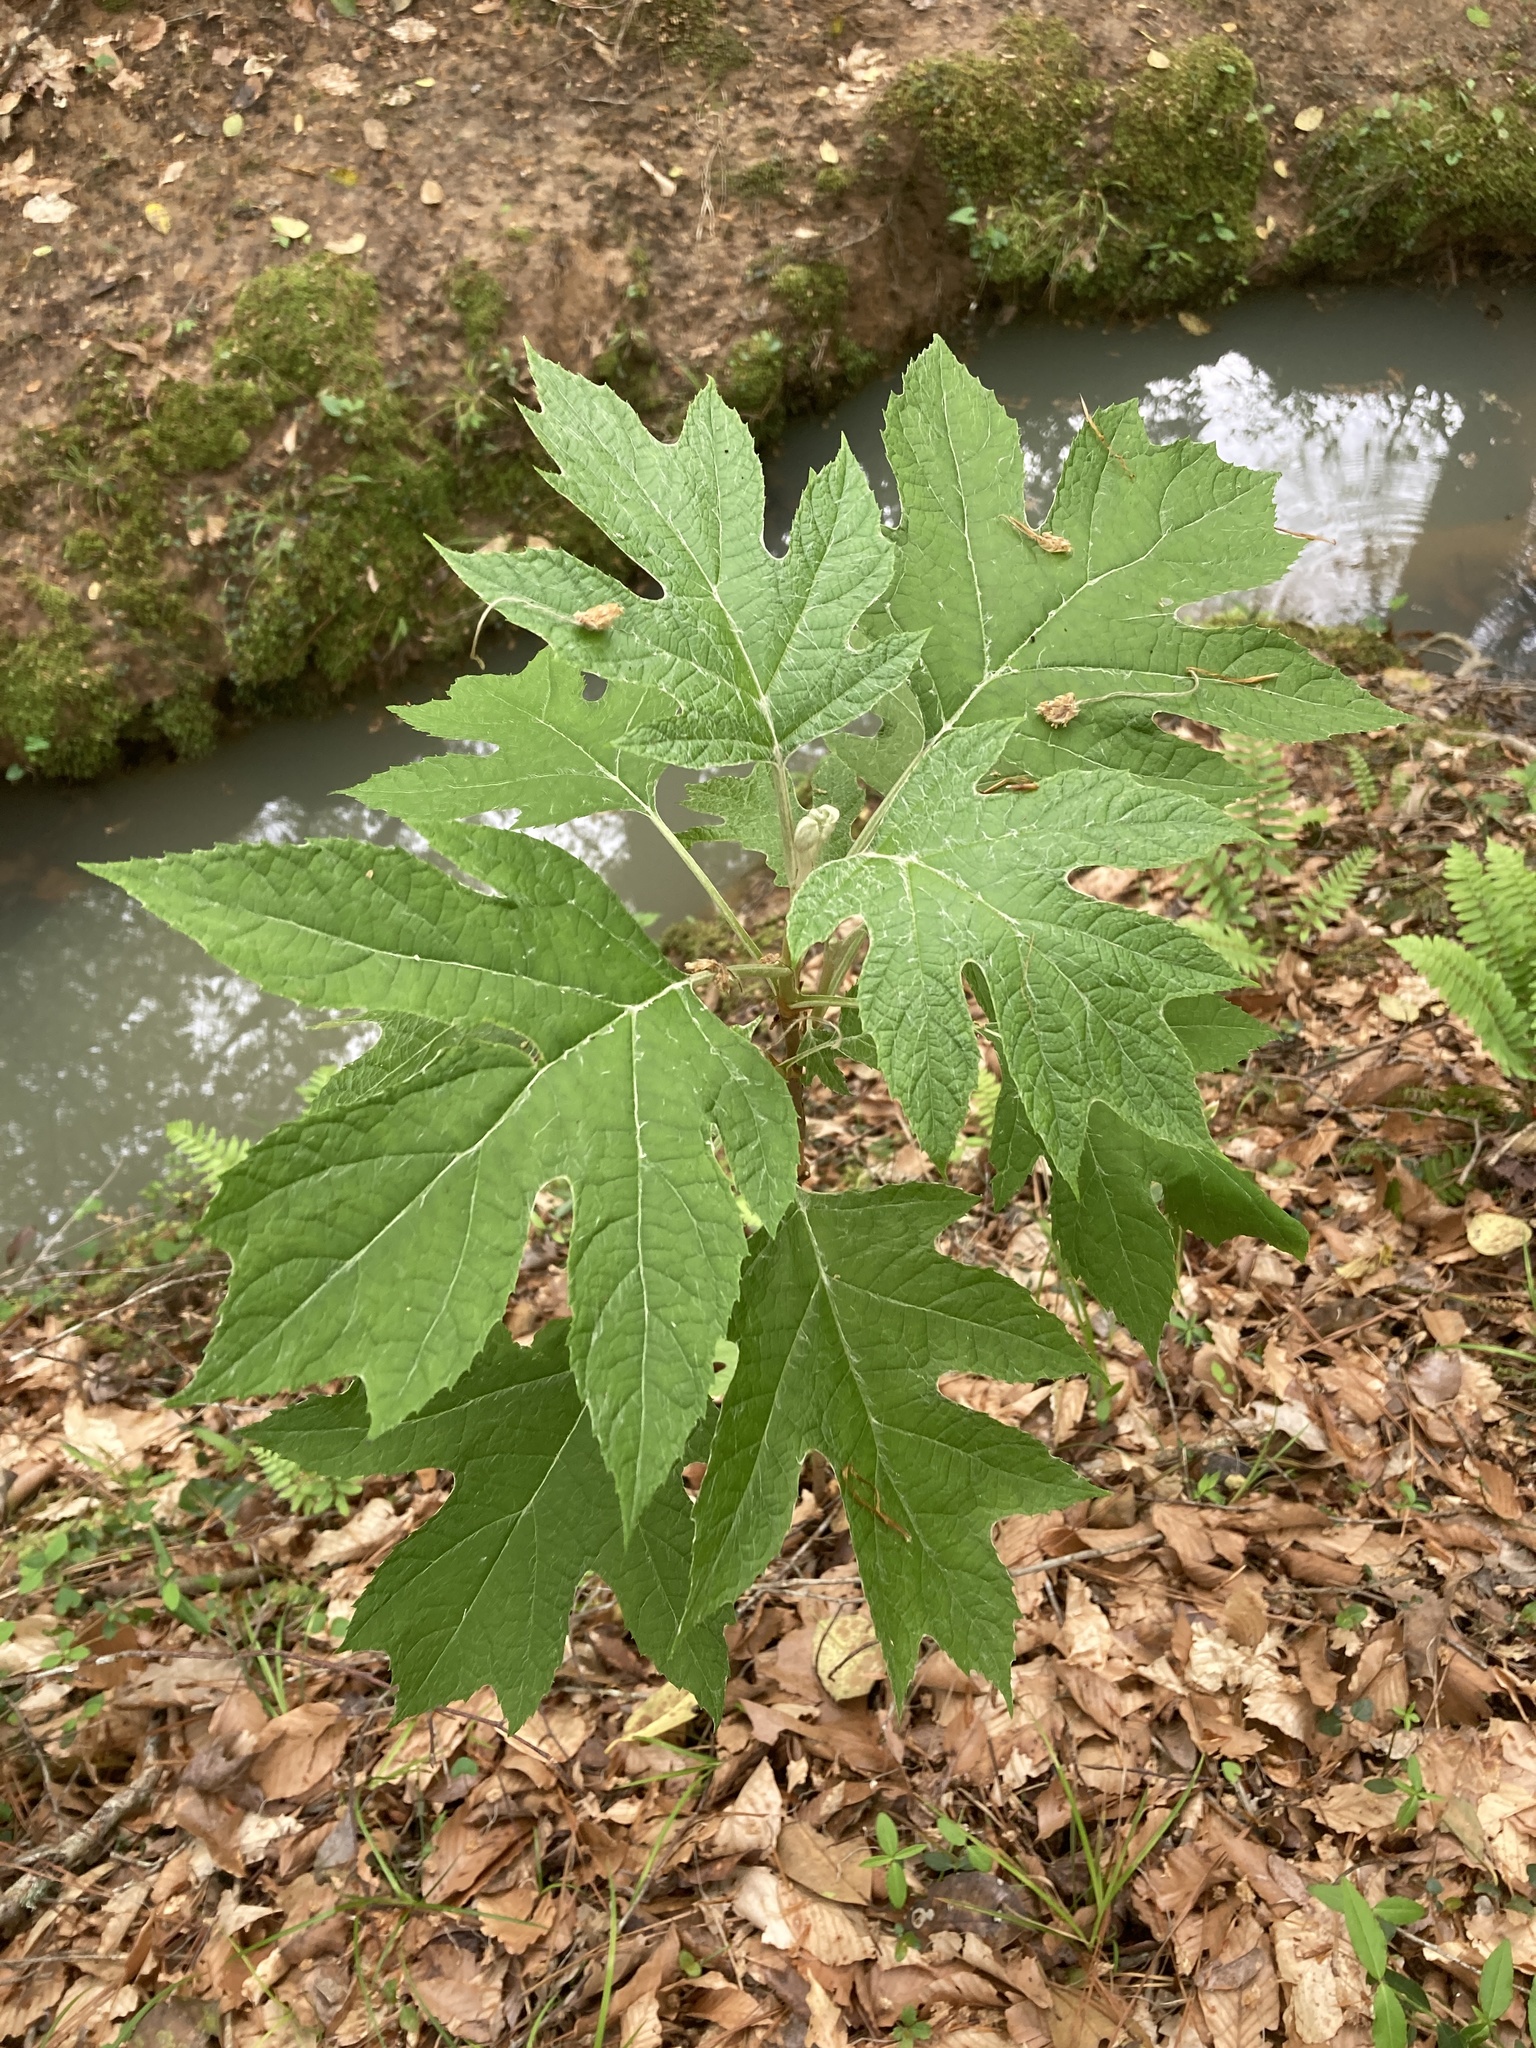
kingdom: Plantae
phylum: Tracheophyta
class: Magnoliopsida
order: Cornales
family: Hydrangeaceae
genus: Hydrangea
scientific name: Hydrangea quercifolia
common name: Oak-leaf hydrangea
